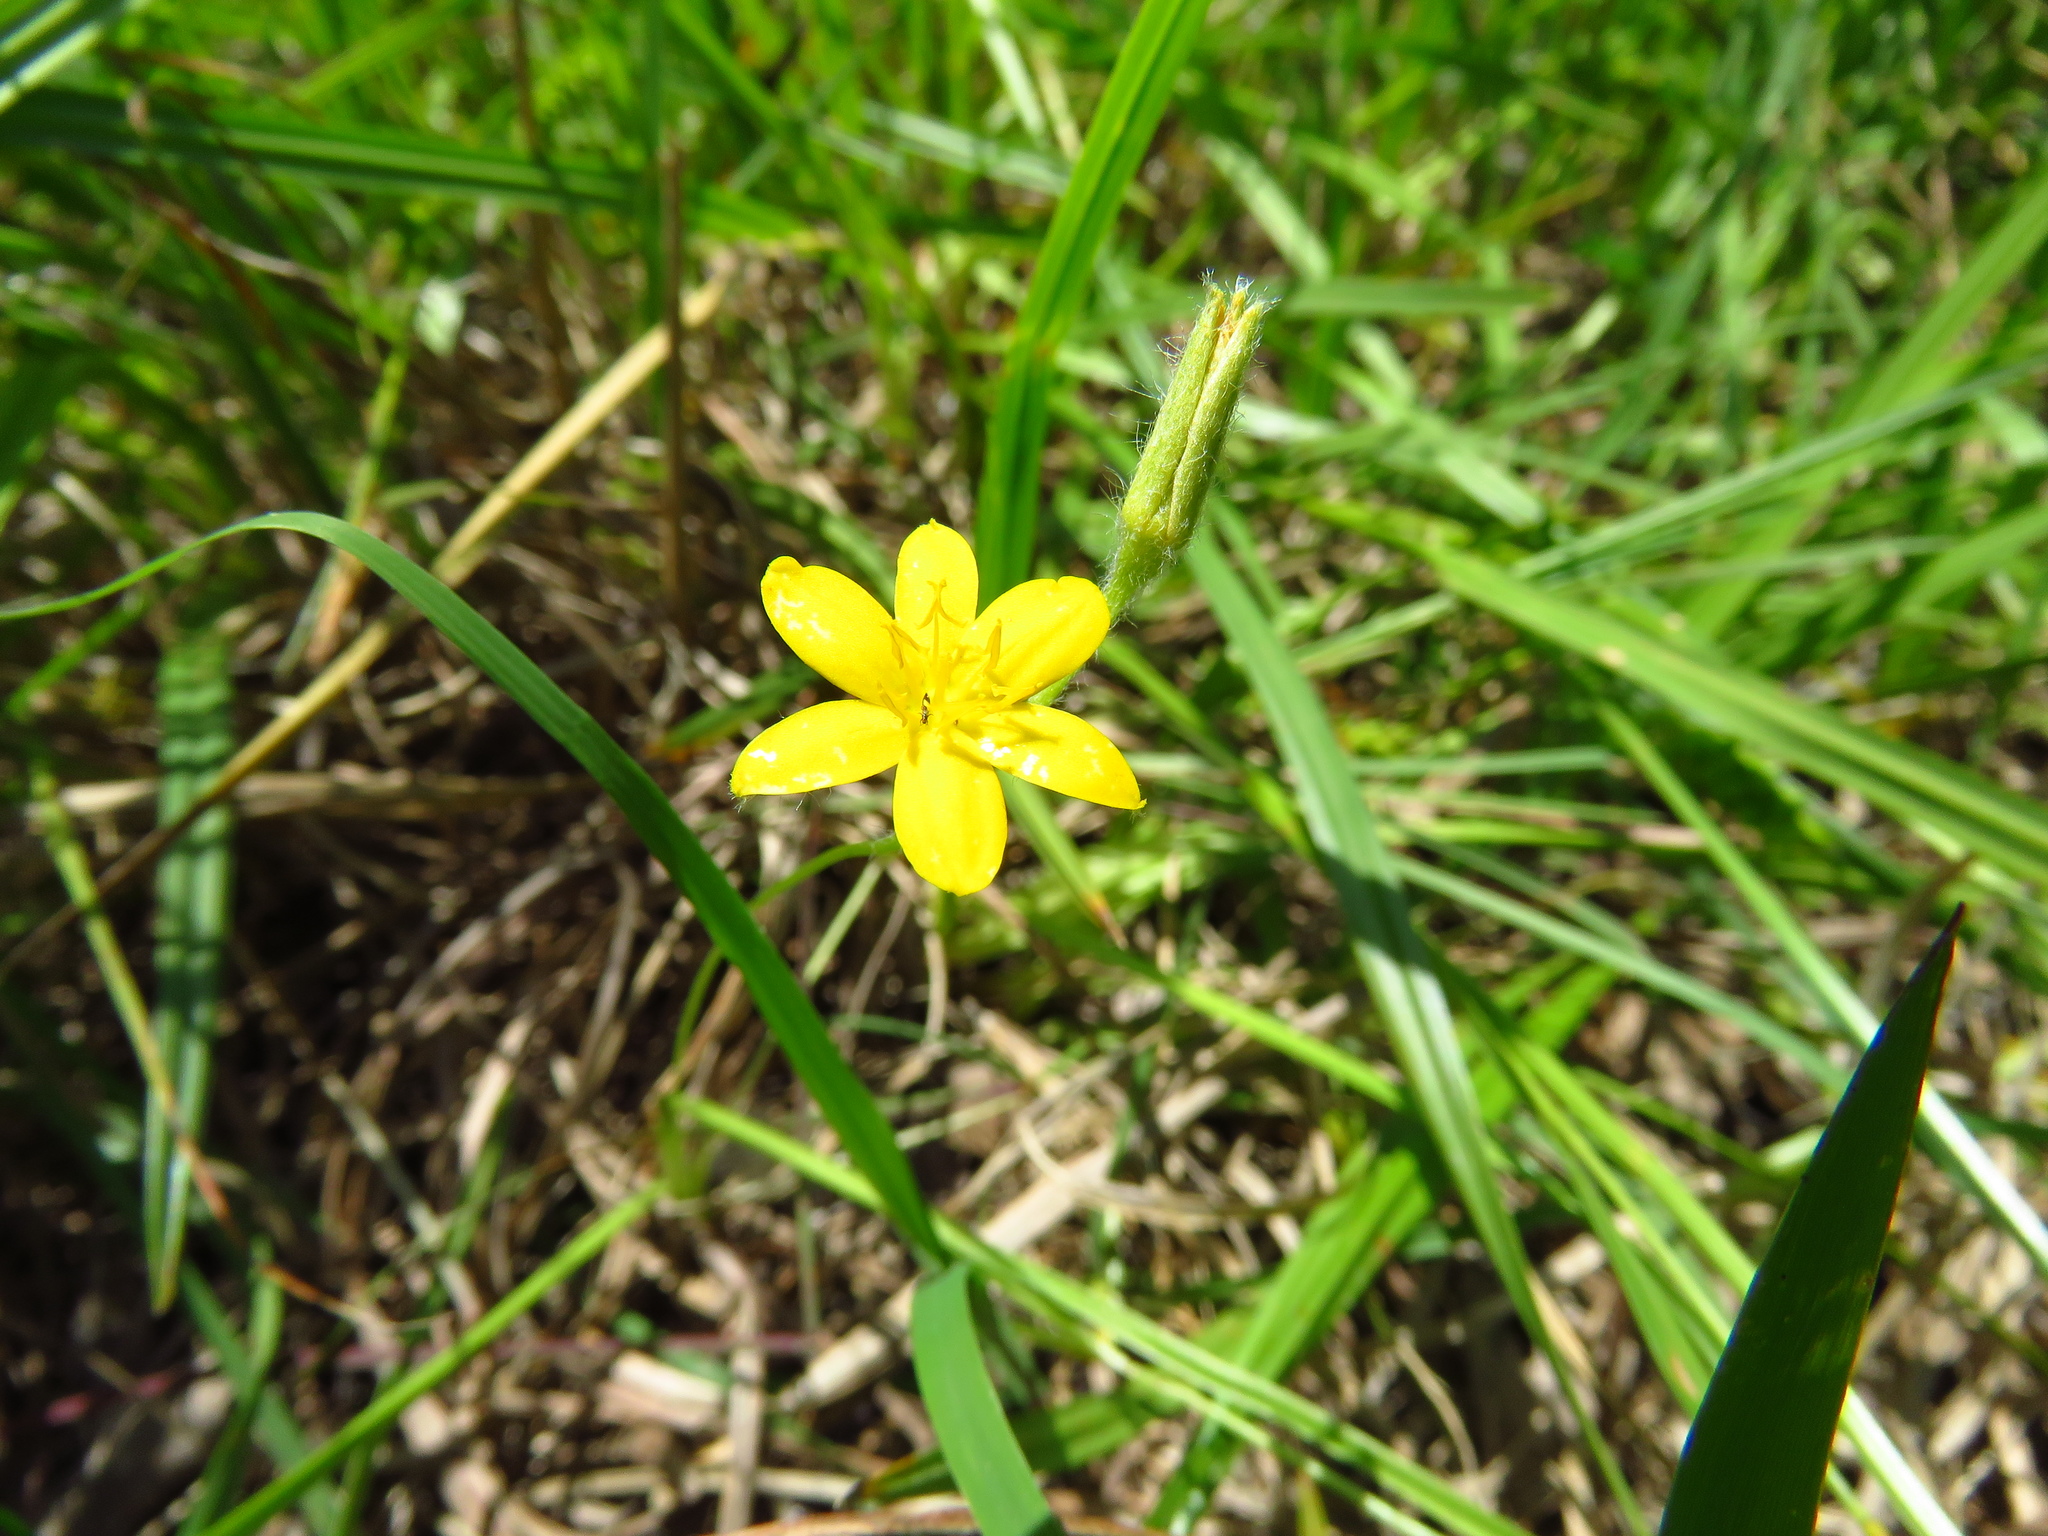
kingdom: Plantae
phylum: Tracheophyta
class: Liliopsida
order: Asparagales
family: Hypoxidaceae
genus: Hypoxis
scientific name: Hypoxis hirsuta
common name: Common goldstar
